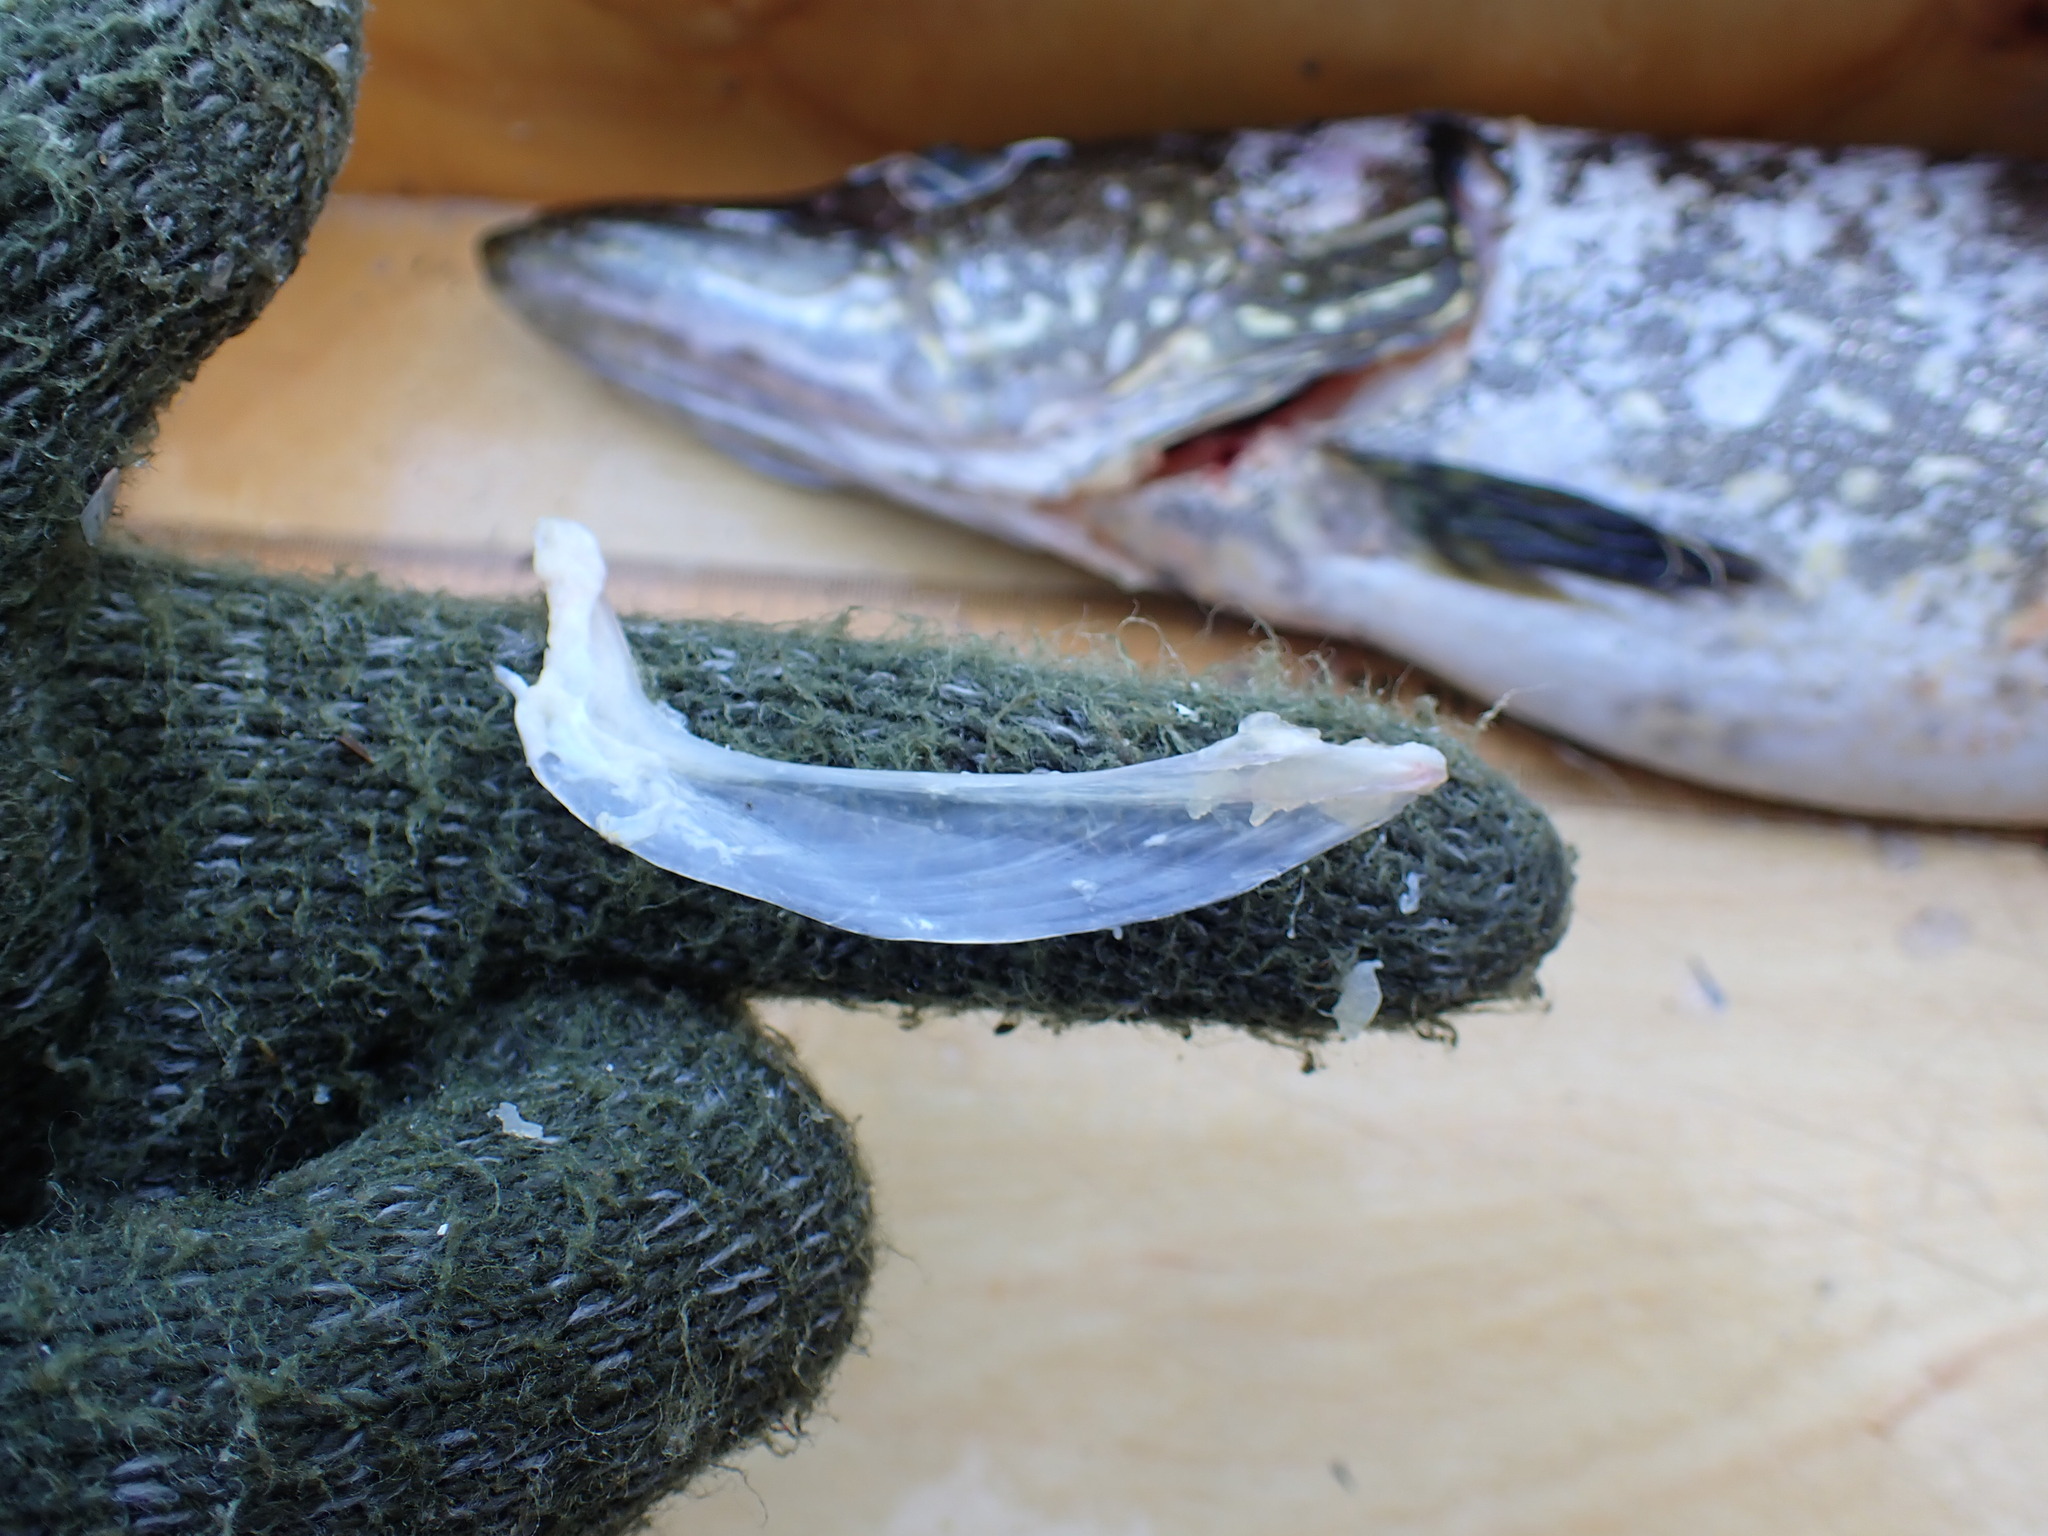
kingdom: Animalia
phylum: Chordata
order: Esociformes
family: Esocidae
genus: Esox
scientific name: Esox lucius
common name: Northern pike
